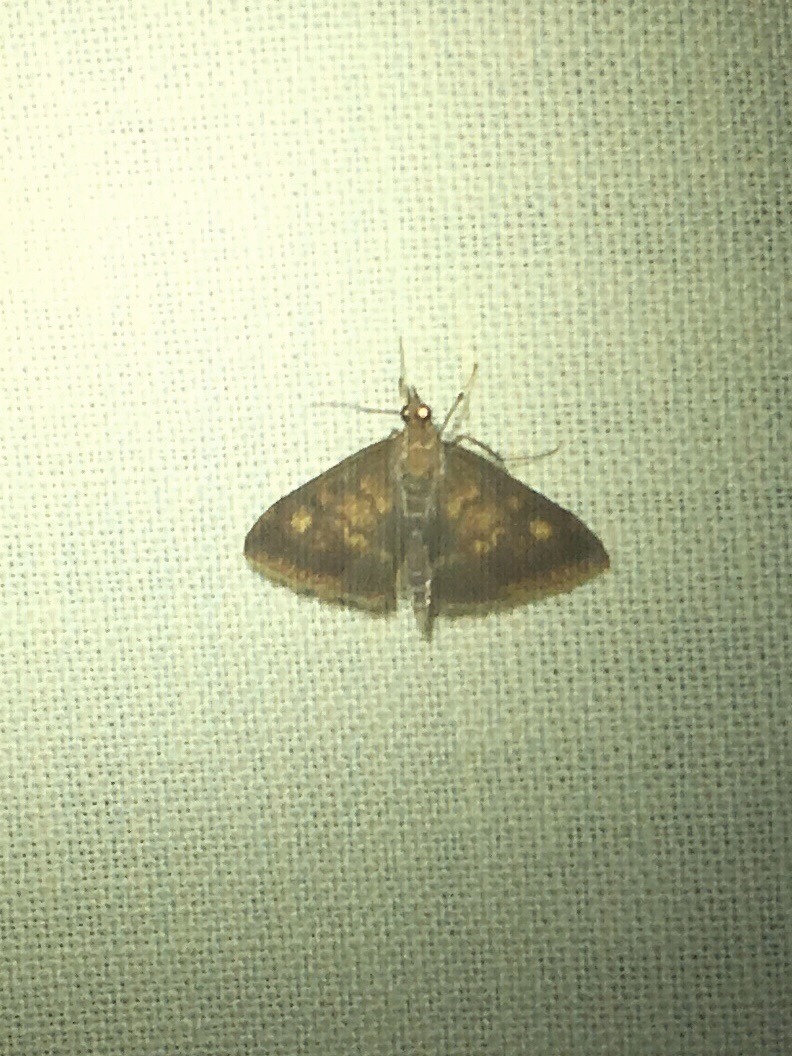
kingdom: Animalia
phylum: Arthropoda
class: Insecta
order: Lepidoptera
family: Crambidae
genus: Pyrausta
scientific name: Pyrausta acrionalis
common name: Mint-loving pyrausta moth
